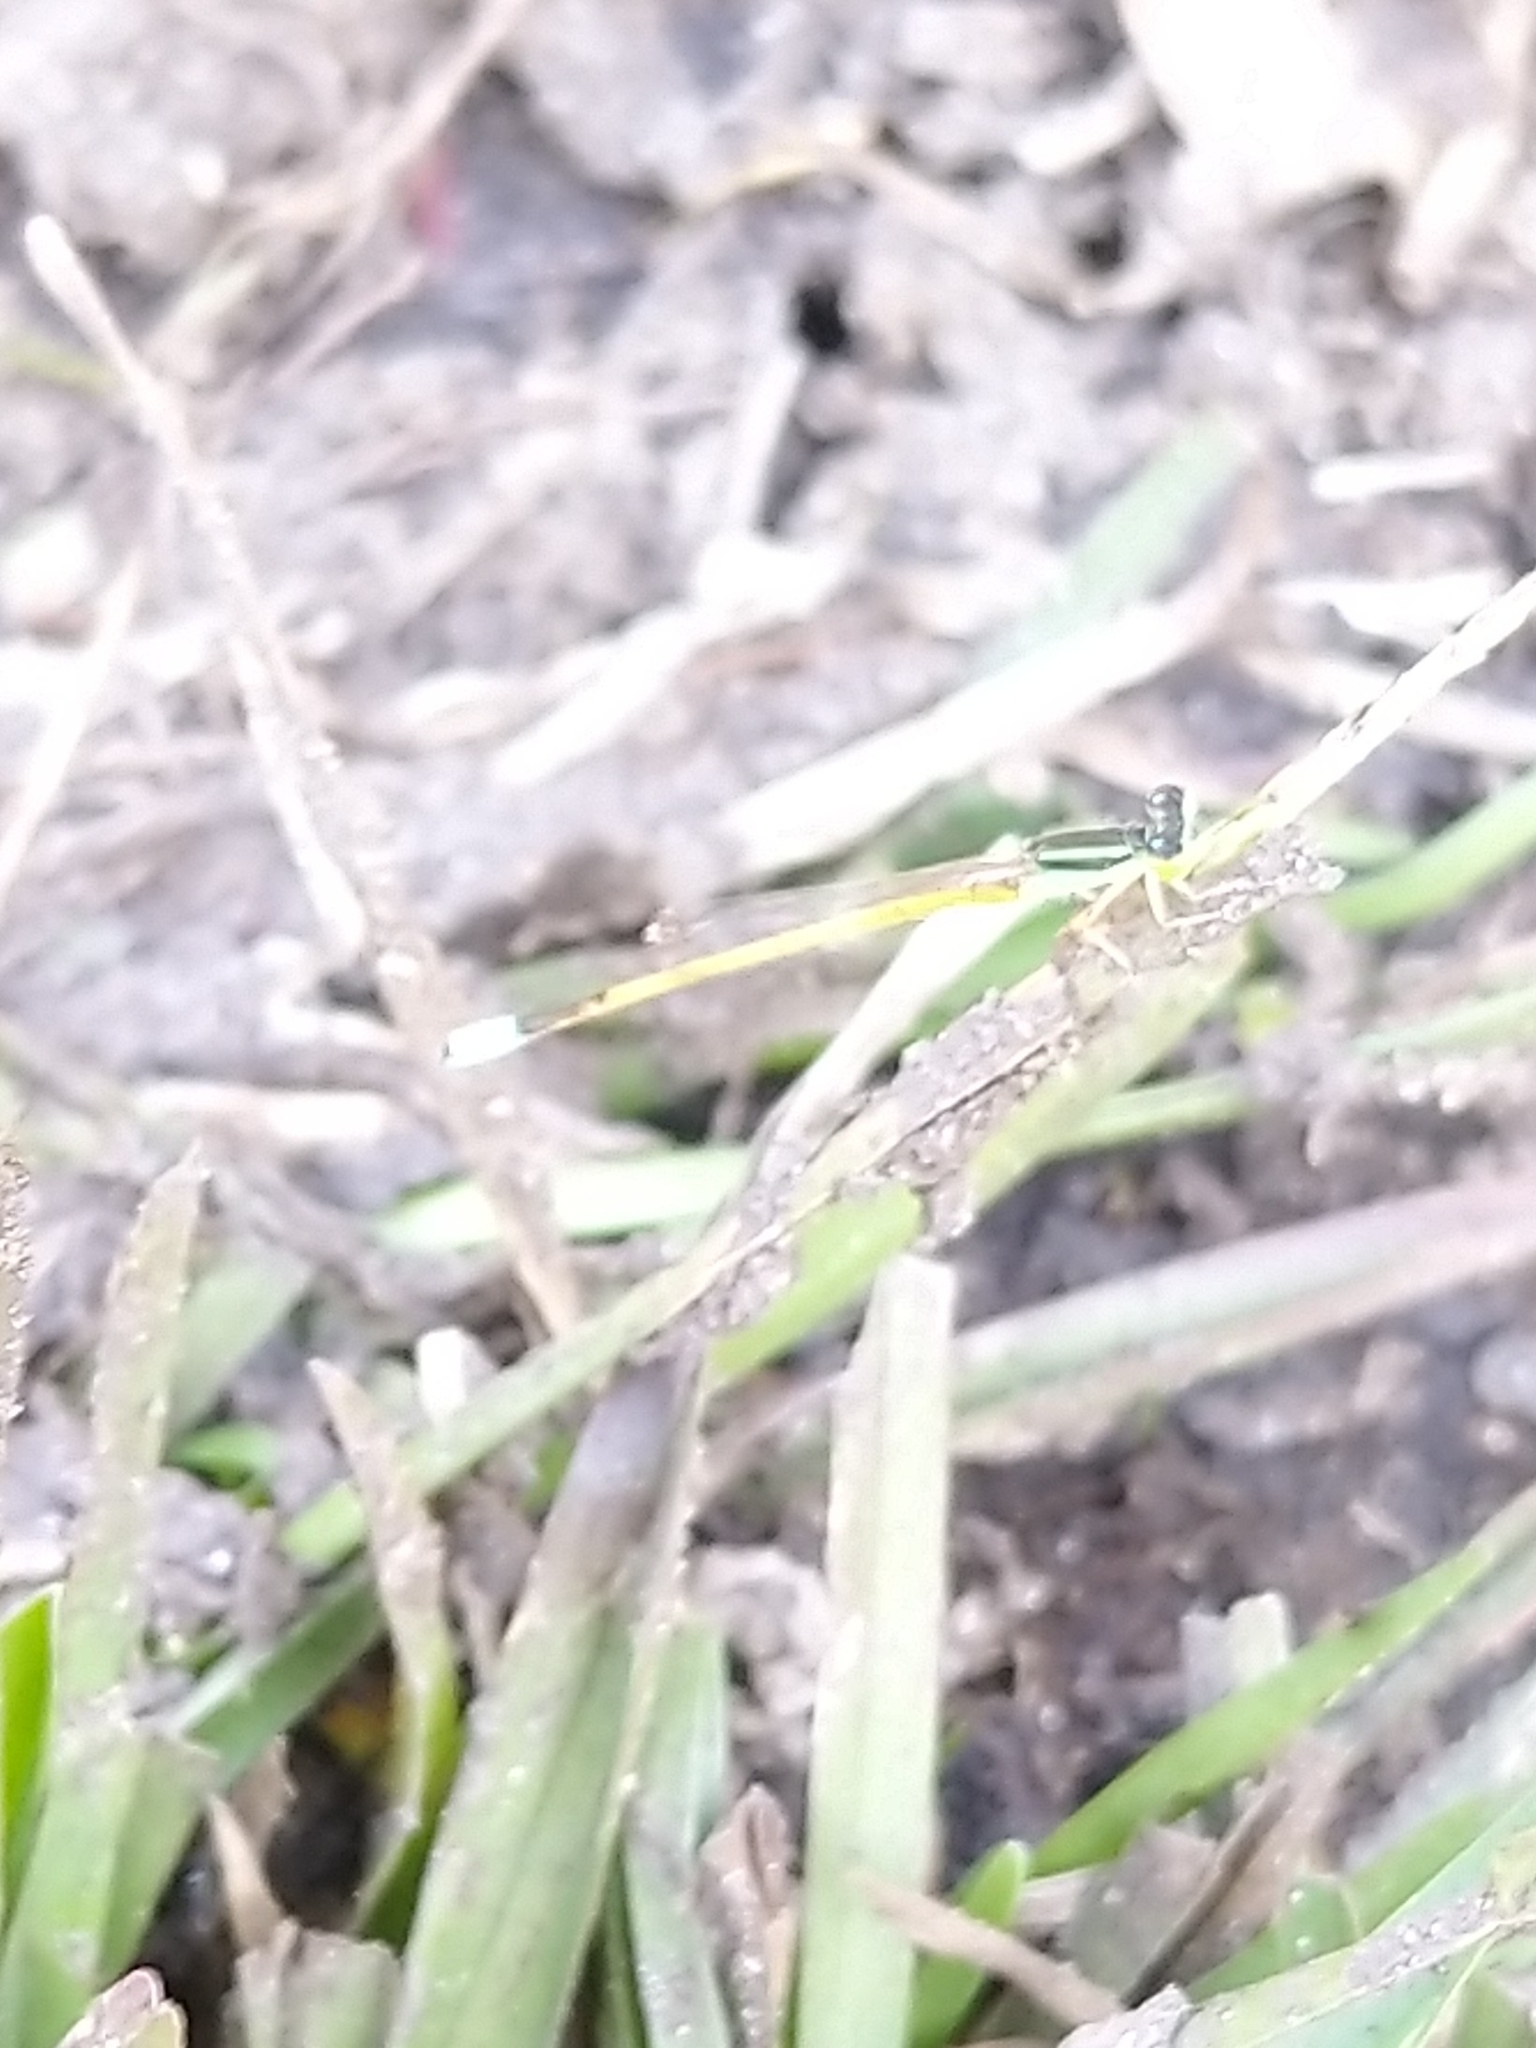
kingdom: Animalia
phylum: Arthropoda
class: Insecta
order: Odonata
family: Coenagrionidae
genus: Ischnura
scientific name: Ischnura rubilio
